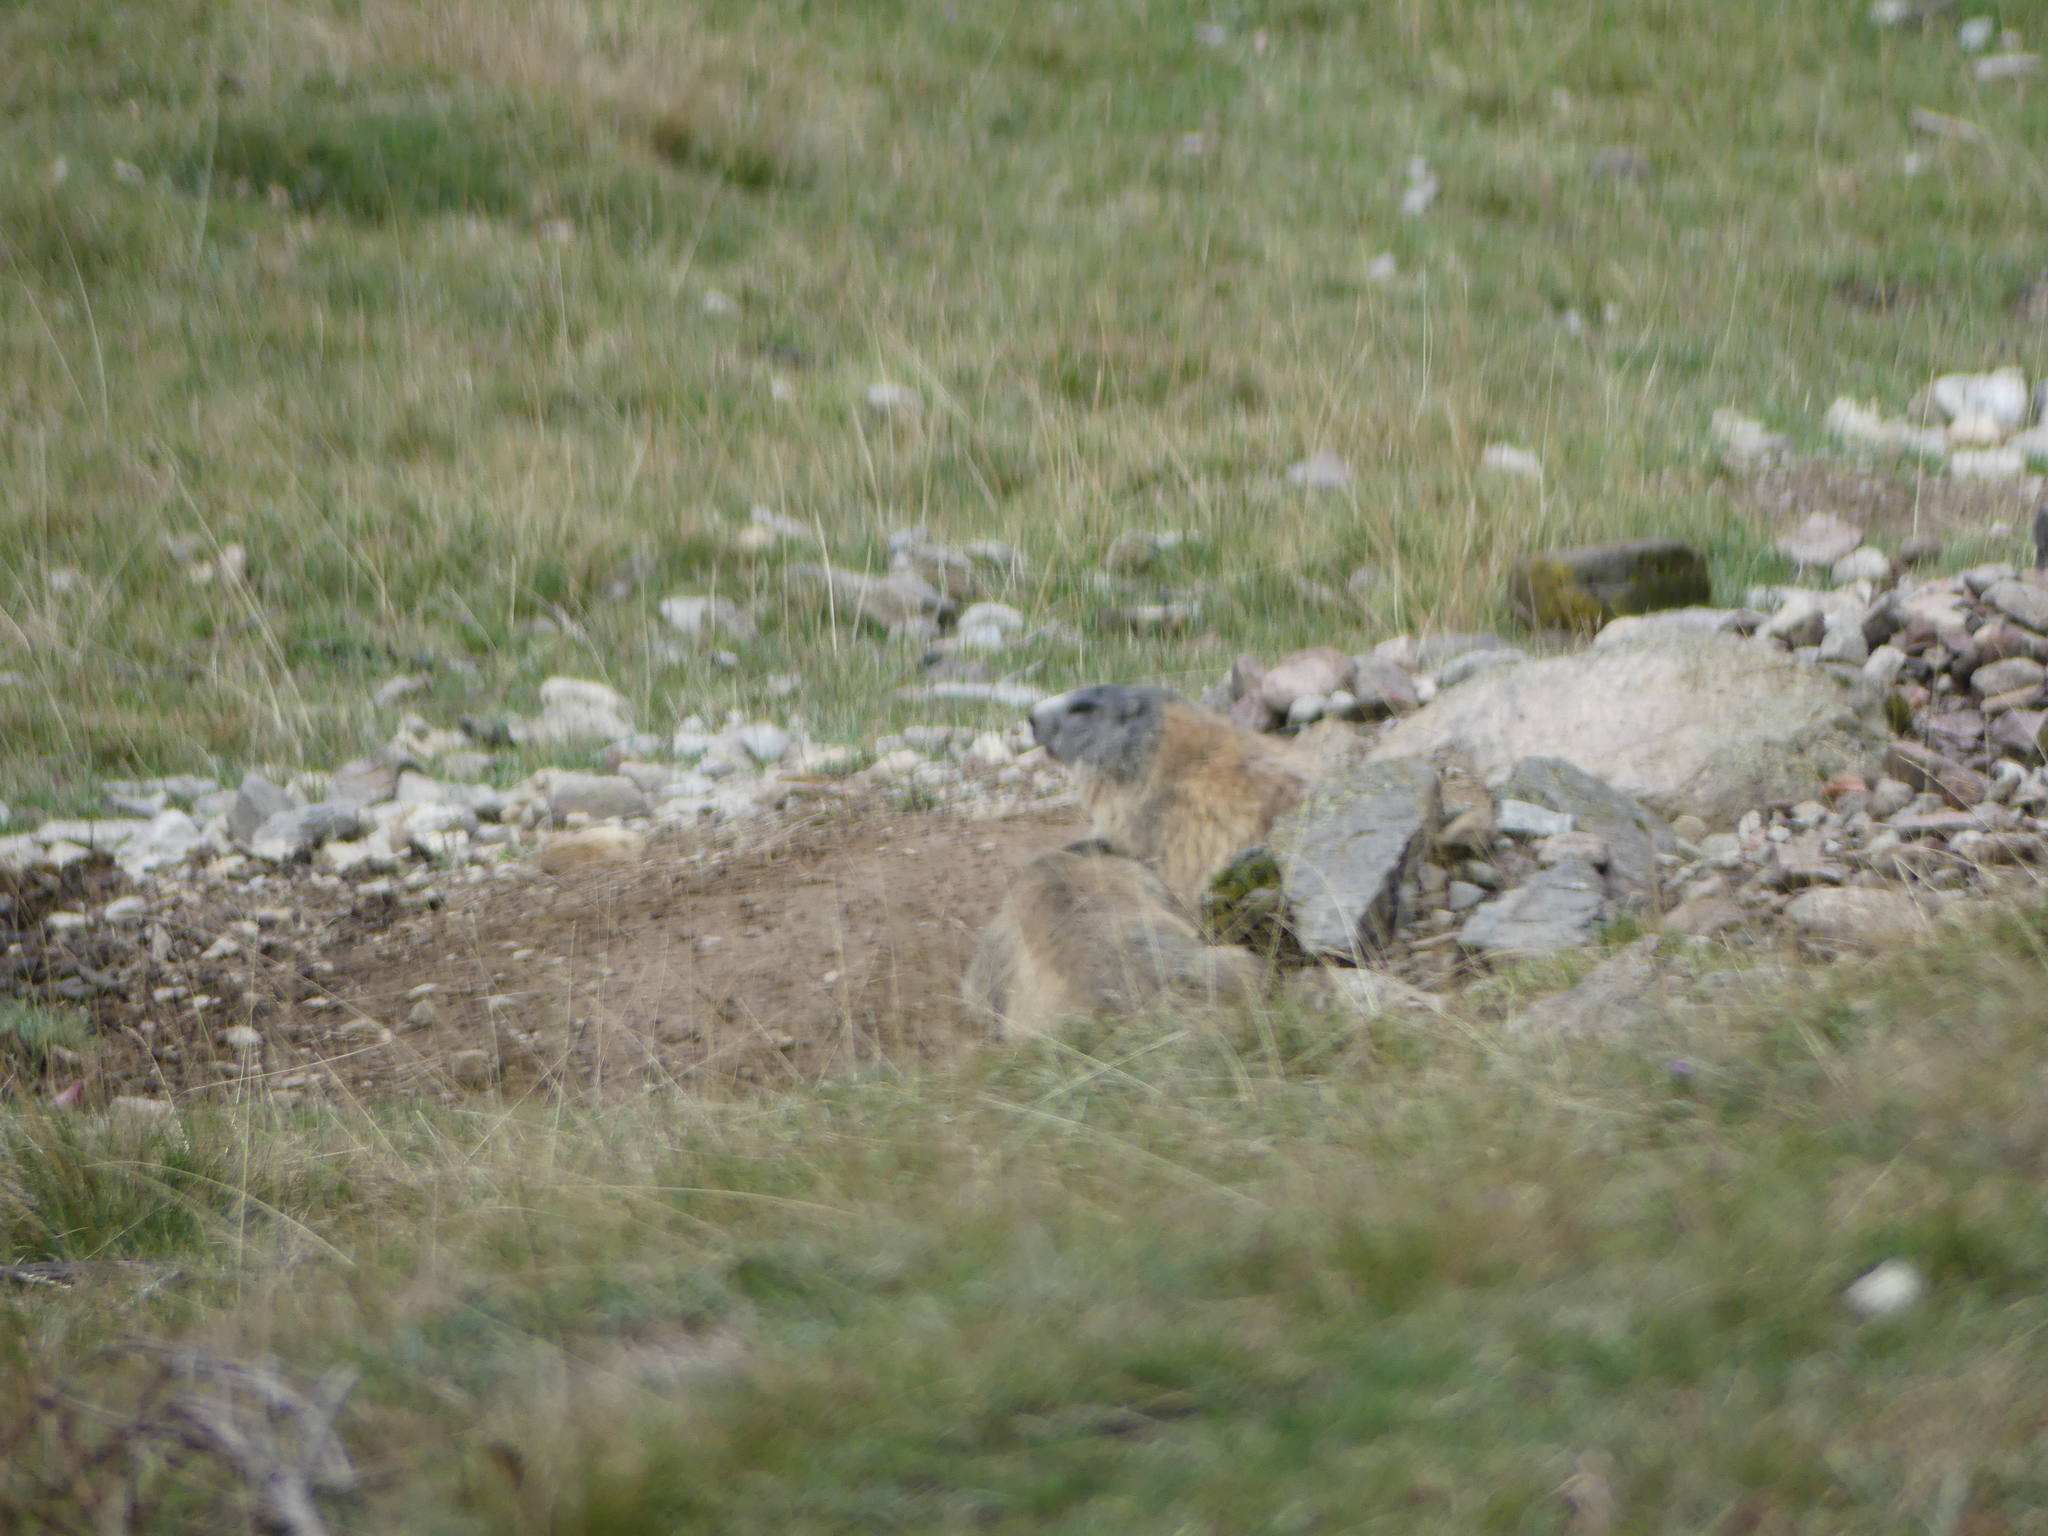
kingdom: Animalia
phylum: Chordata
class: Mammalia
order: Rodentia
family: Sciuridae
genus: Marmota
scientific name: Marmota marmota
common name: Alpine marmot
